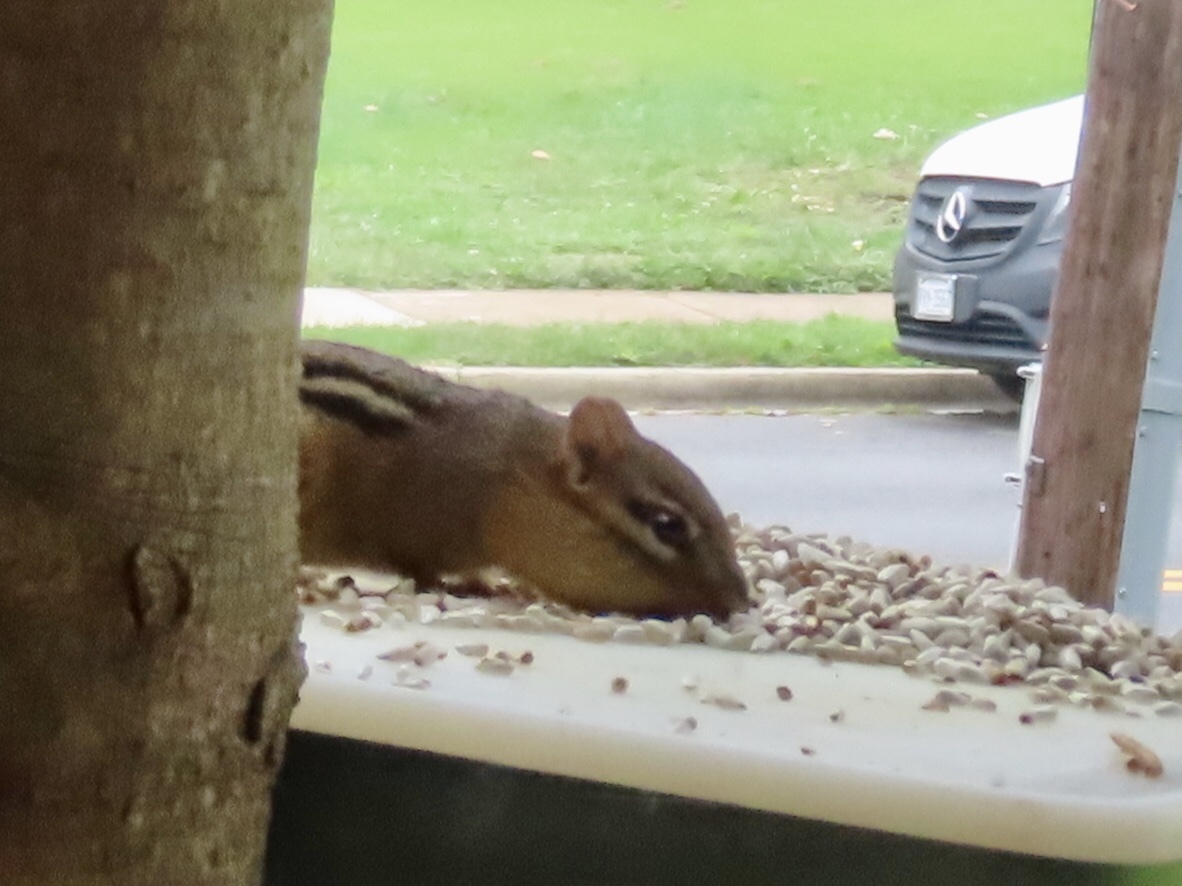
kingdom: Animalia
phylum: Chordata
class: Mammalia
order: Rodentia
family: Sciuridae
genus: Tamias
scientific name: Tamias striatus
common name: Eastern chipmunk
